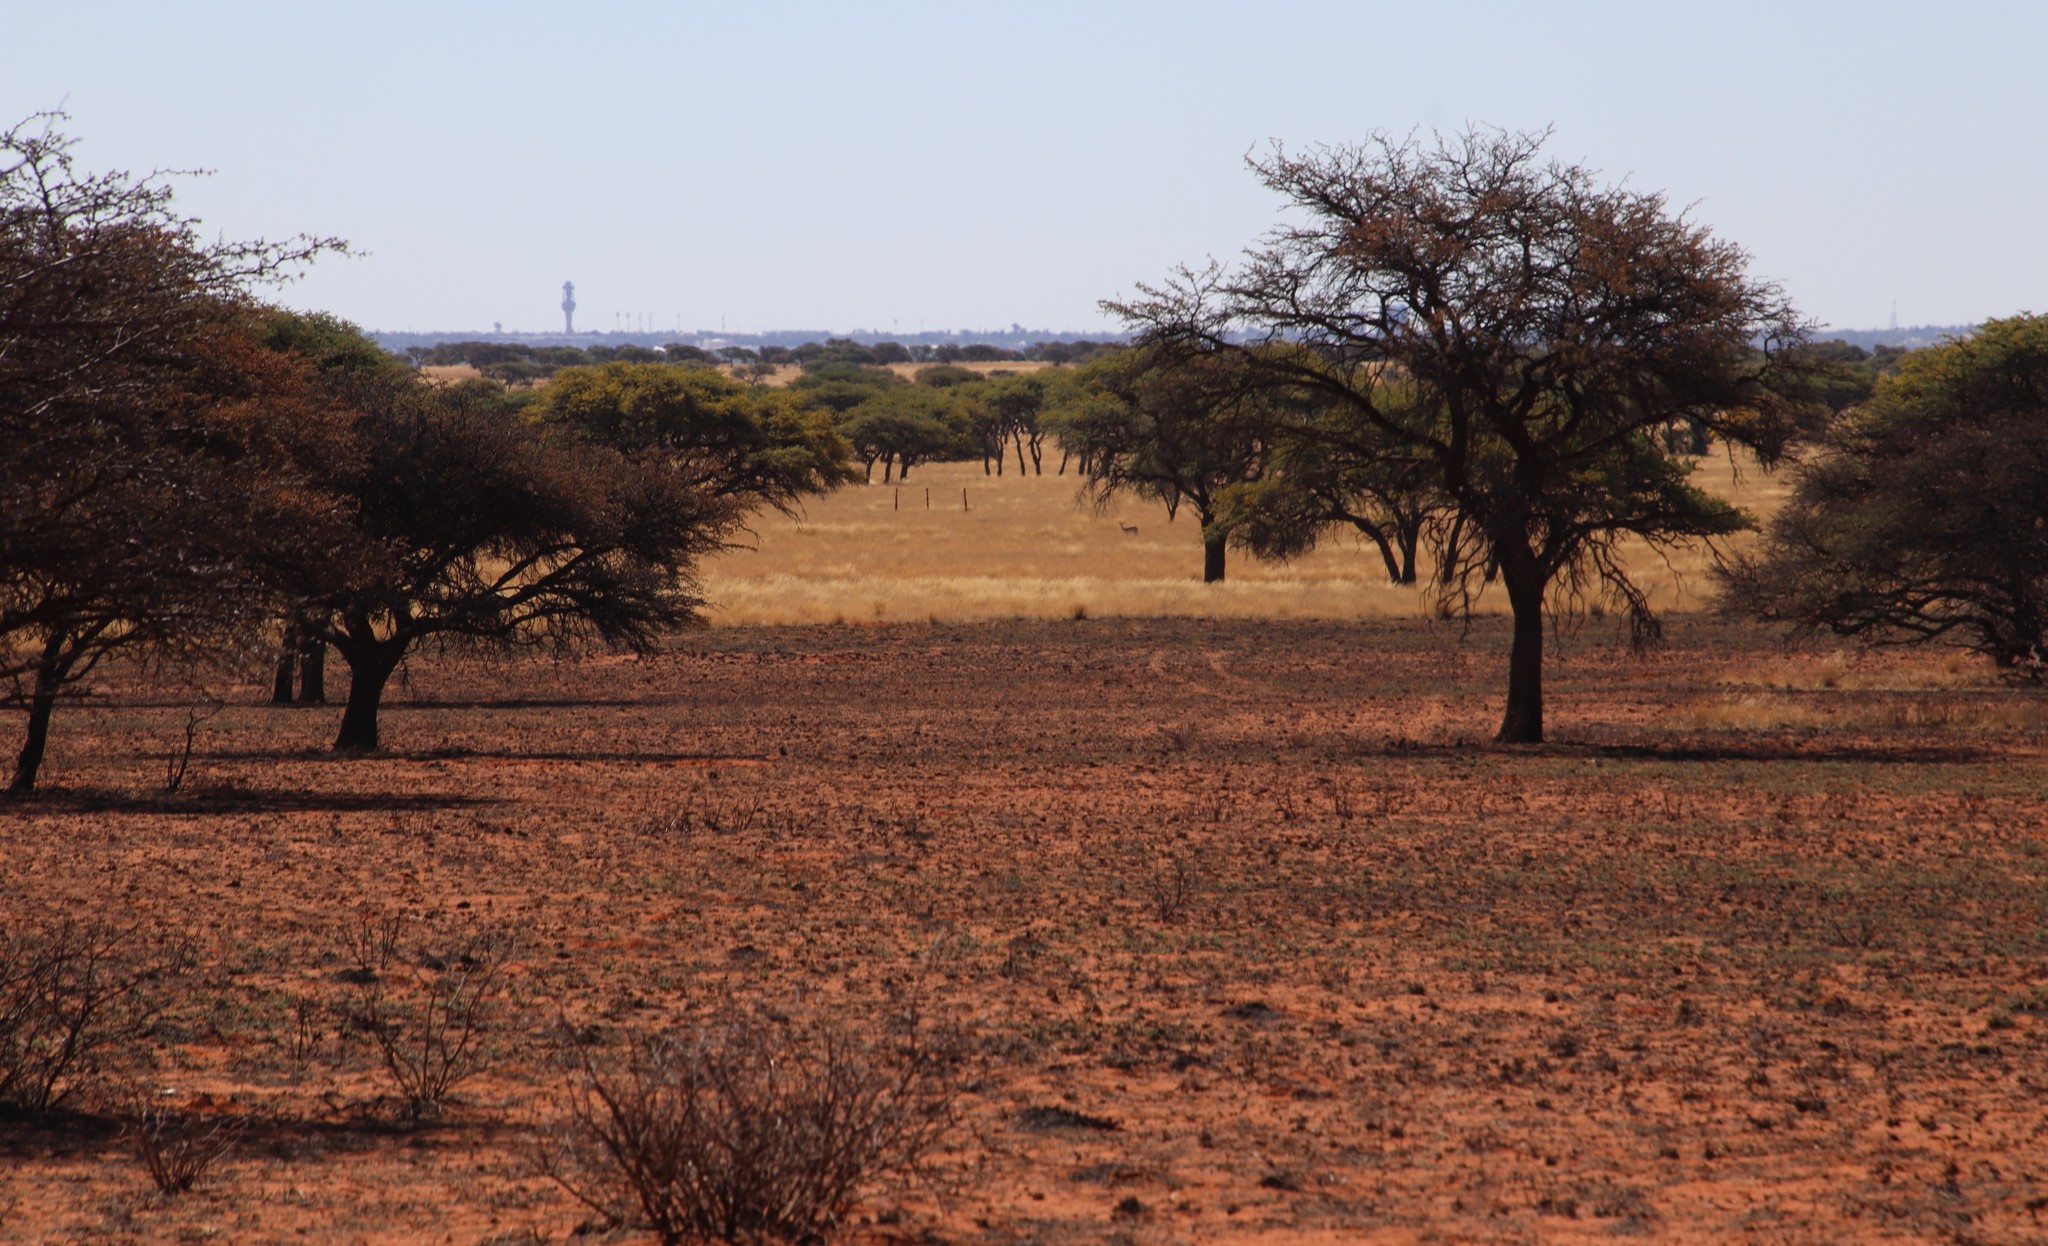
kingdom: Animalia
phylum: Chordata
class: Mammalia
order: Artiodactyla
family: Bovidae
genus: Antidorcas
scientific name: Antidorcas marsupialis
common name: Springbok
